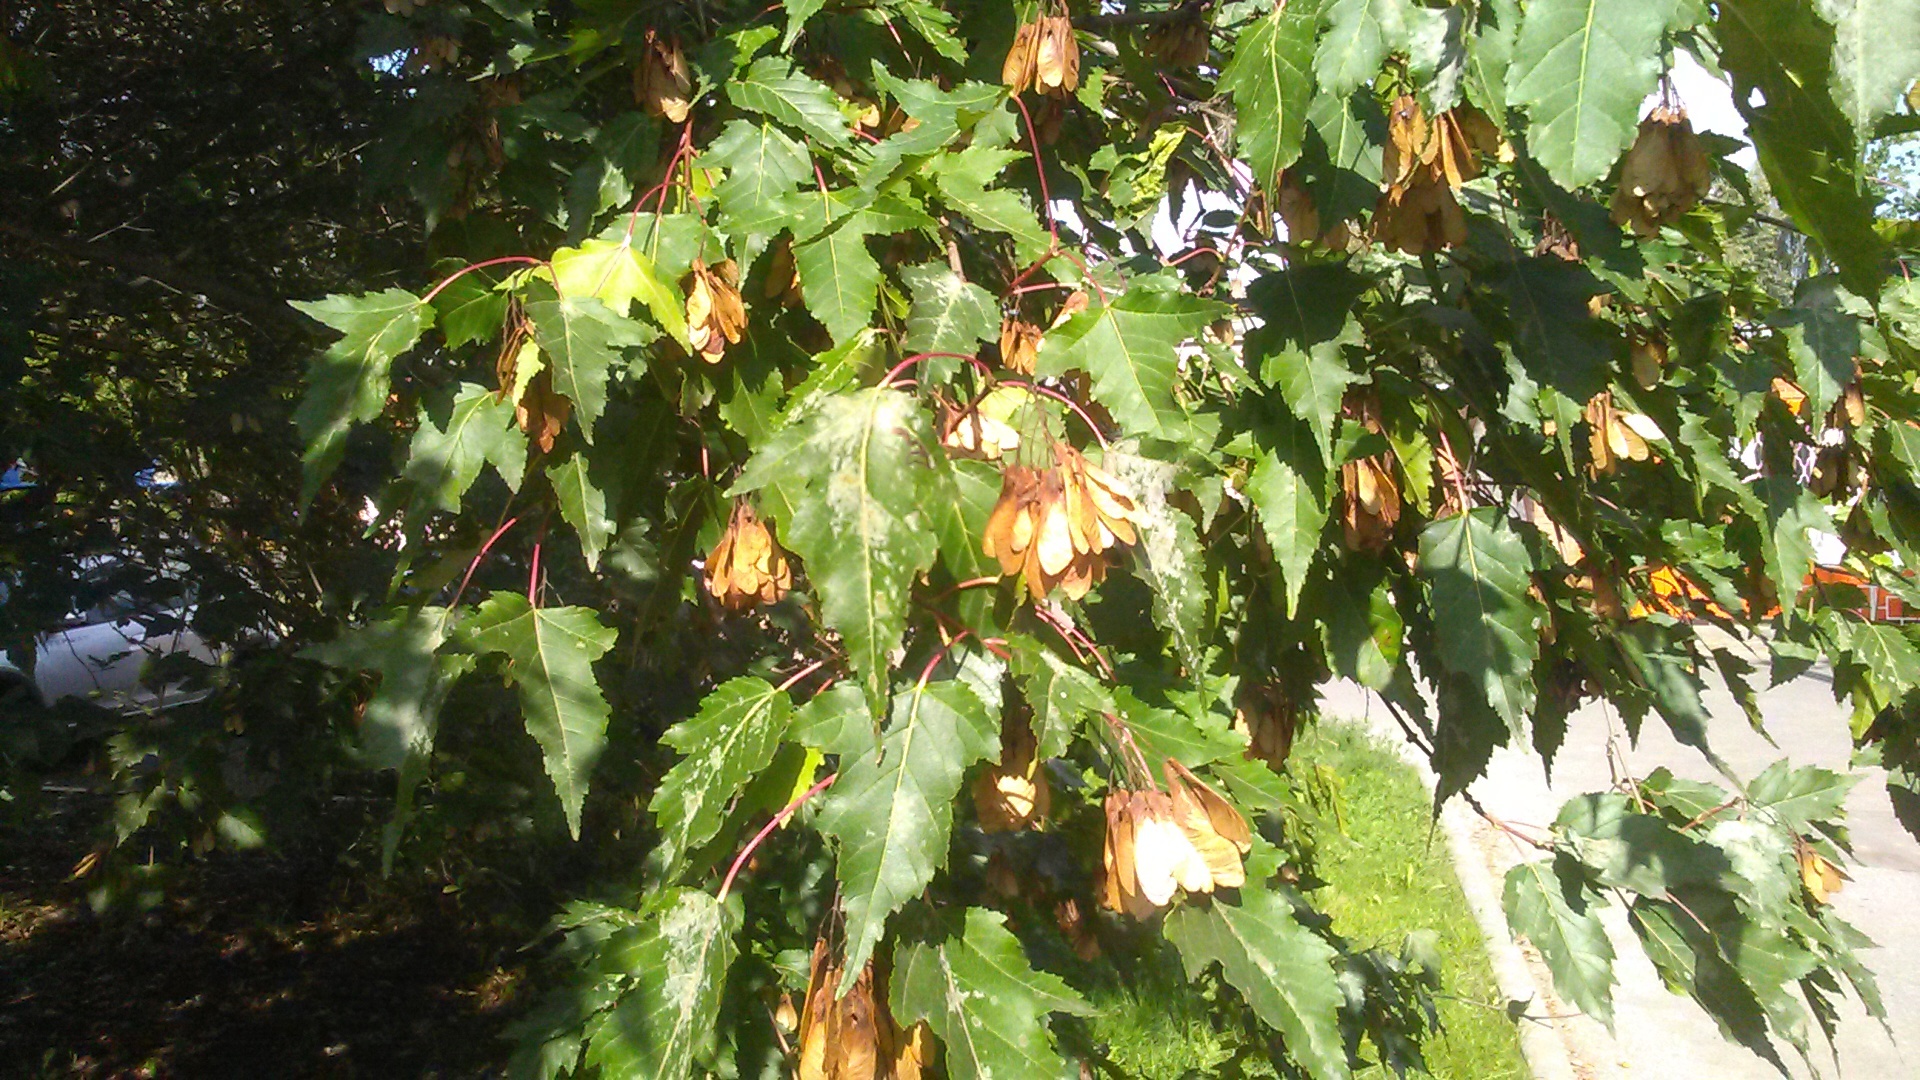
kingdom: Plantae
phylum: Tracheophyta
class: Magnoliopsida
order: Sapindales
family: Sapindaceae
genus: Acer
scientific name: Acer tataricum
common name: Tartar maple
